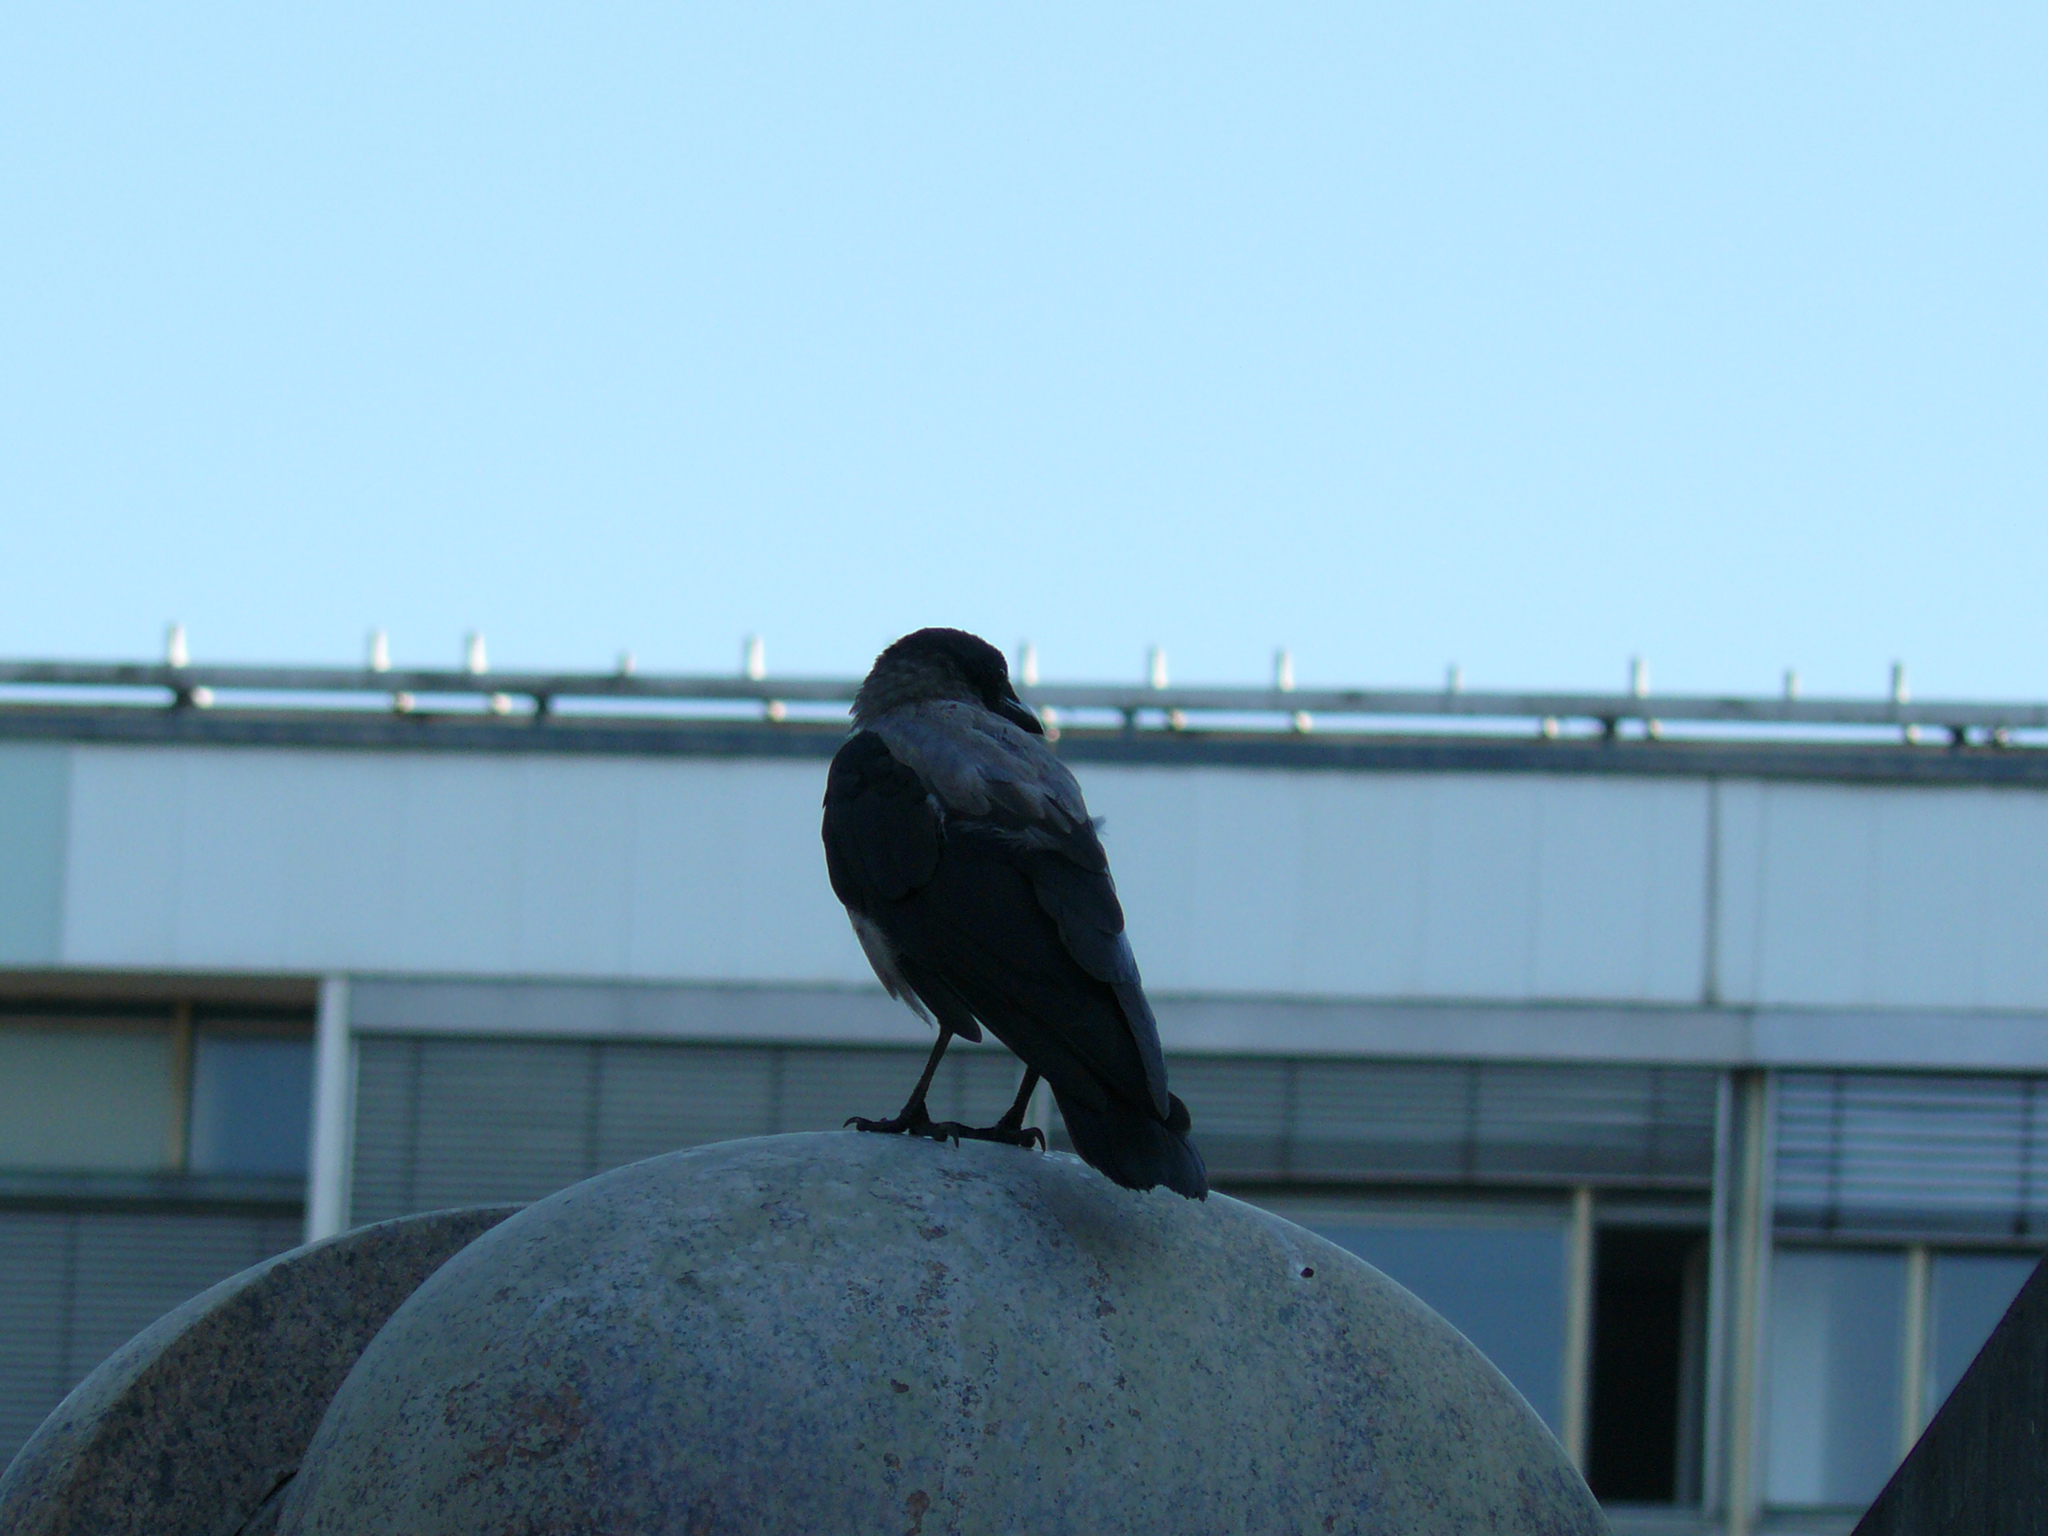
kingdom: Animalia
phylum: Chordata
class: Aves
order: Passeriformes
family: Corvidae
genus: Corvus
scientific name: Corvus
